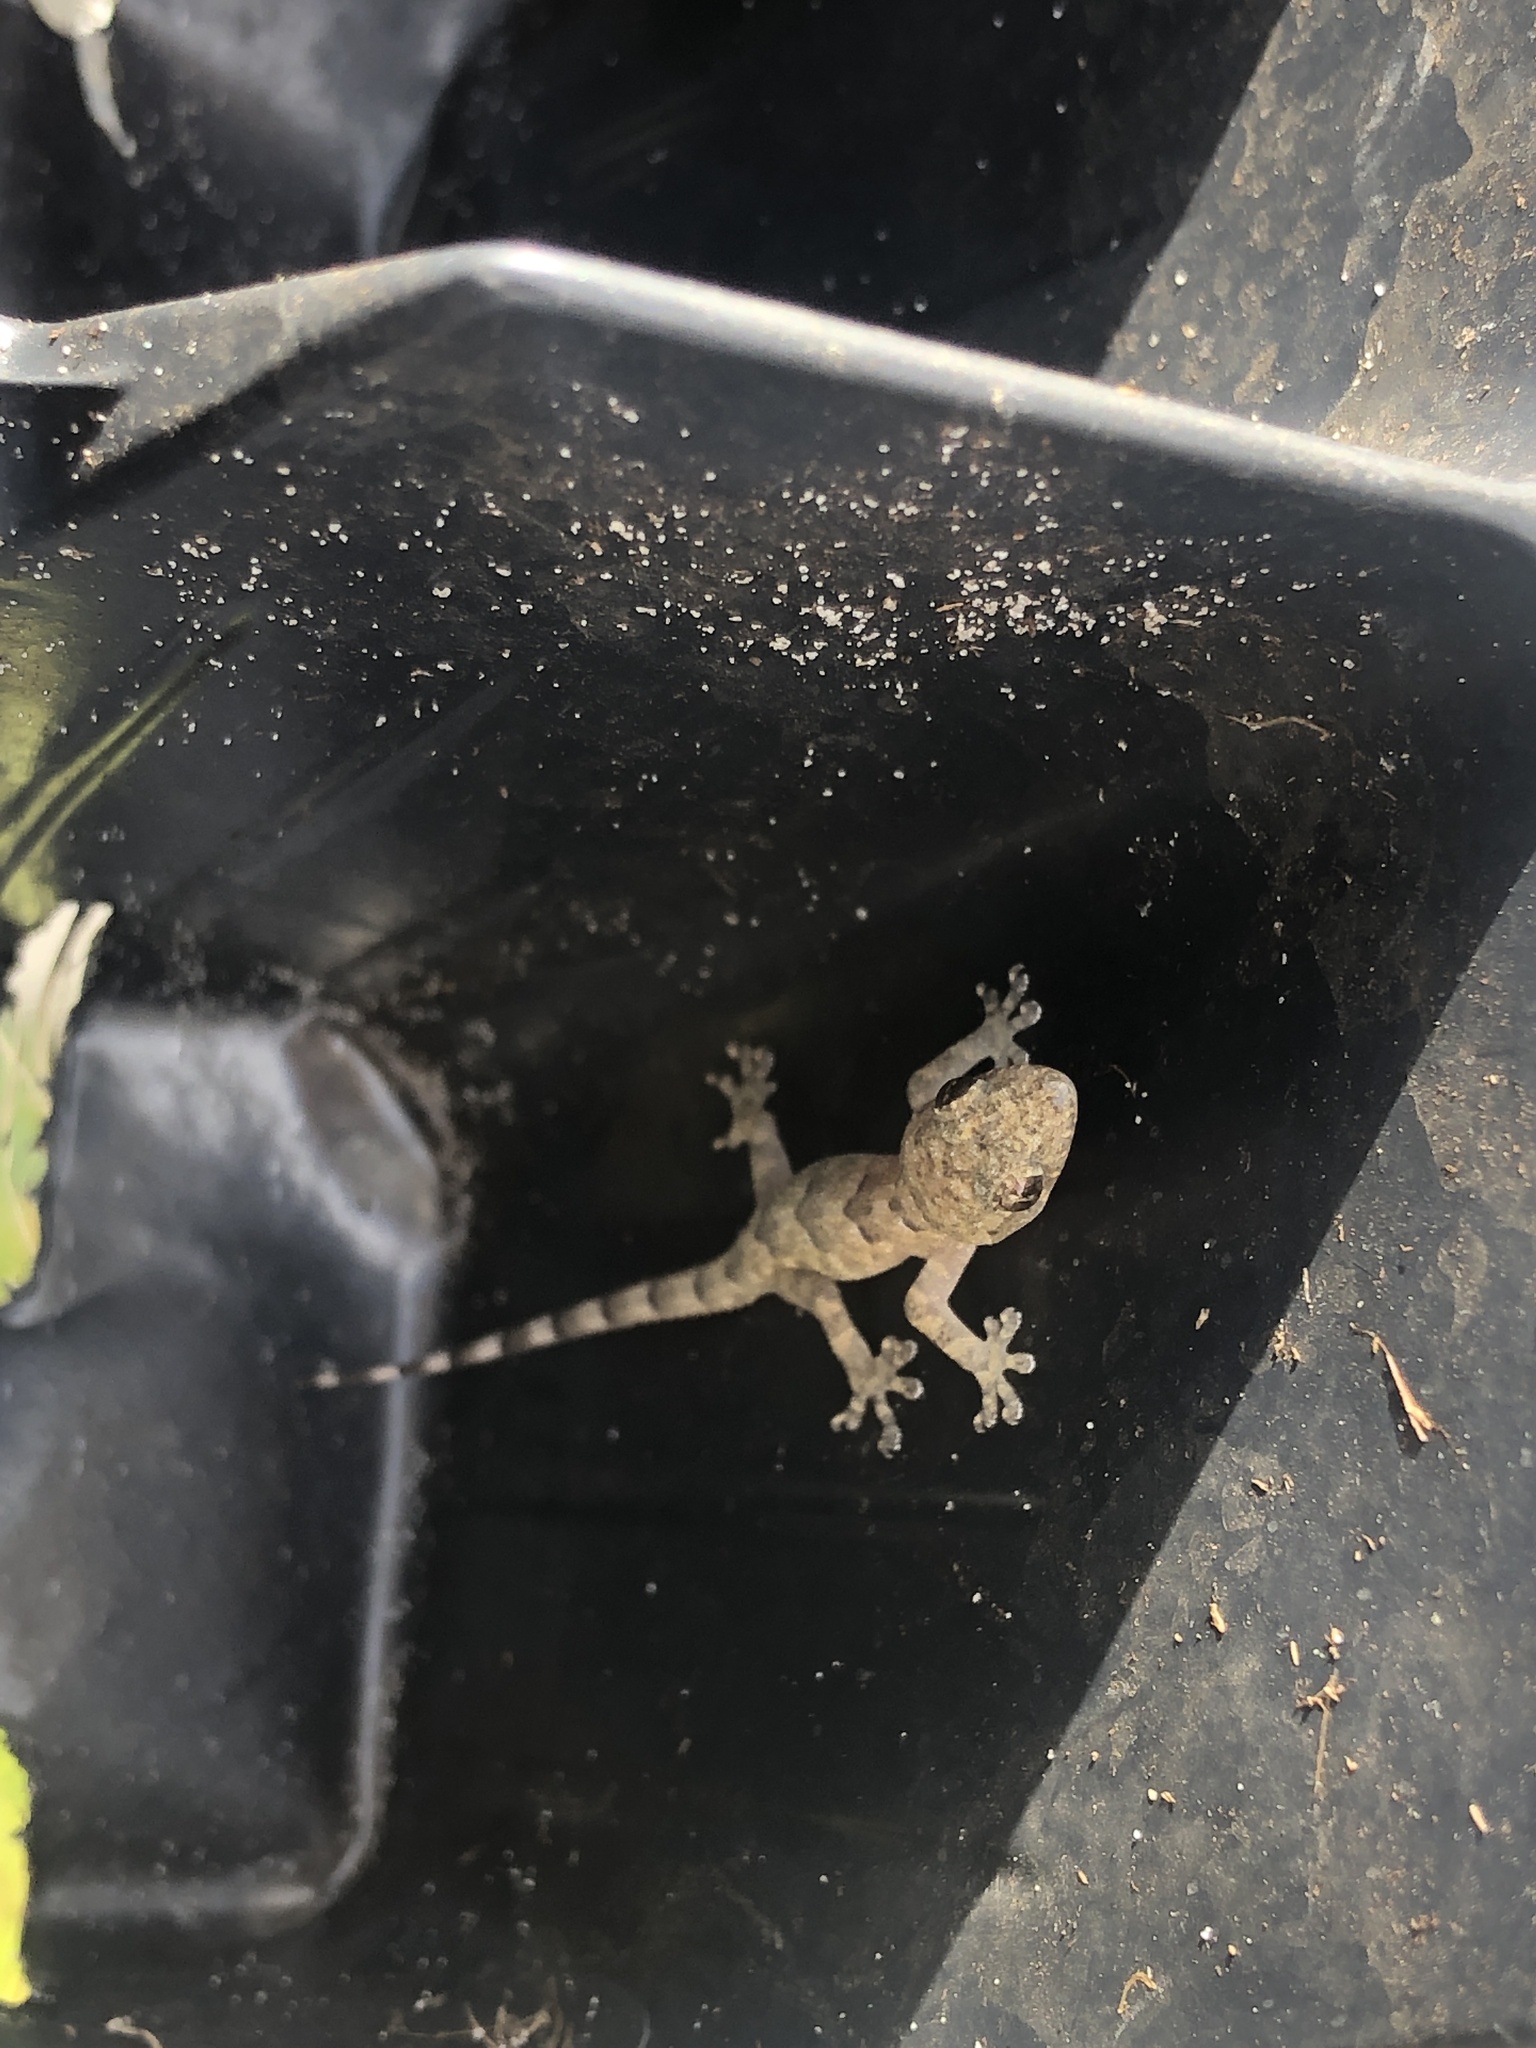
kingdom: Animalia
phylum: Chordata
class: Squamata
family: Gekkonidae
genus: Hemidactylus
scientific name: Hemidactylus mabouia
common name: House gecko
